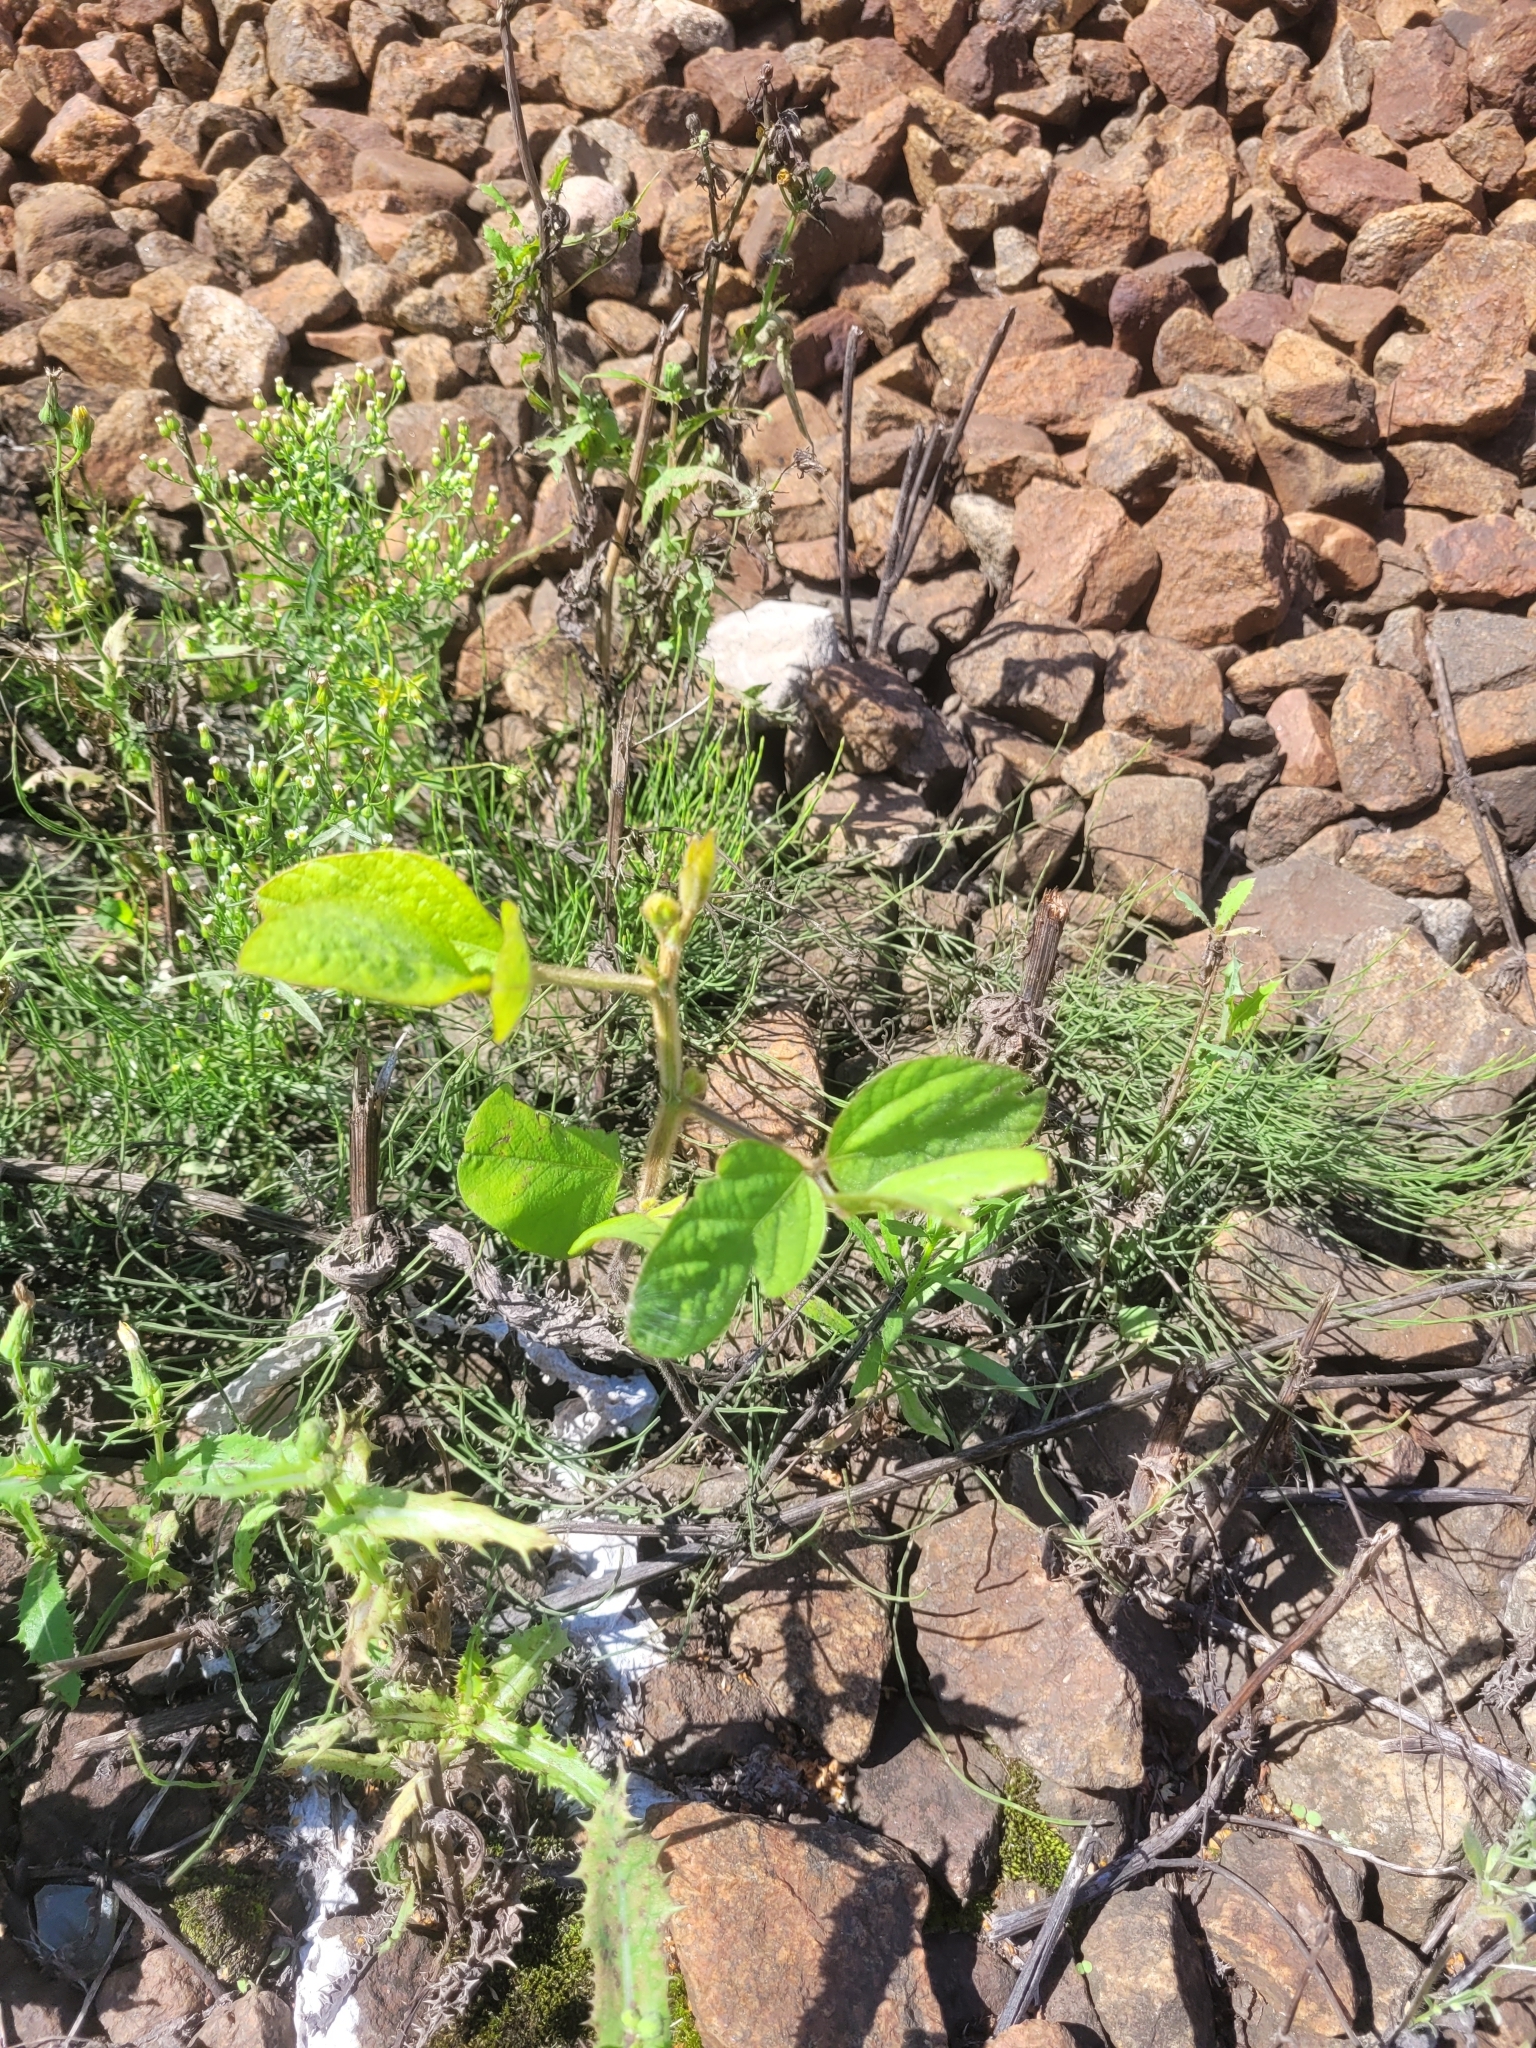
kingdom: Plantae
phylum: Tracheophyta
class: Magnoliopsida
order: Fabales
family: Fabaceae
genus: Glycine
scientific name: Glycine max
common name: Soya-bean
